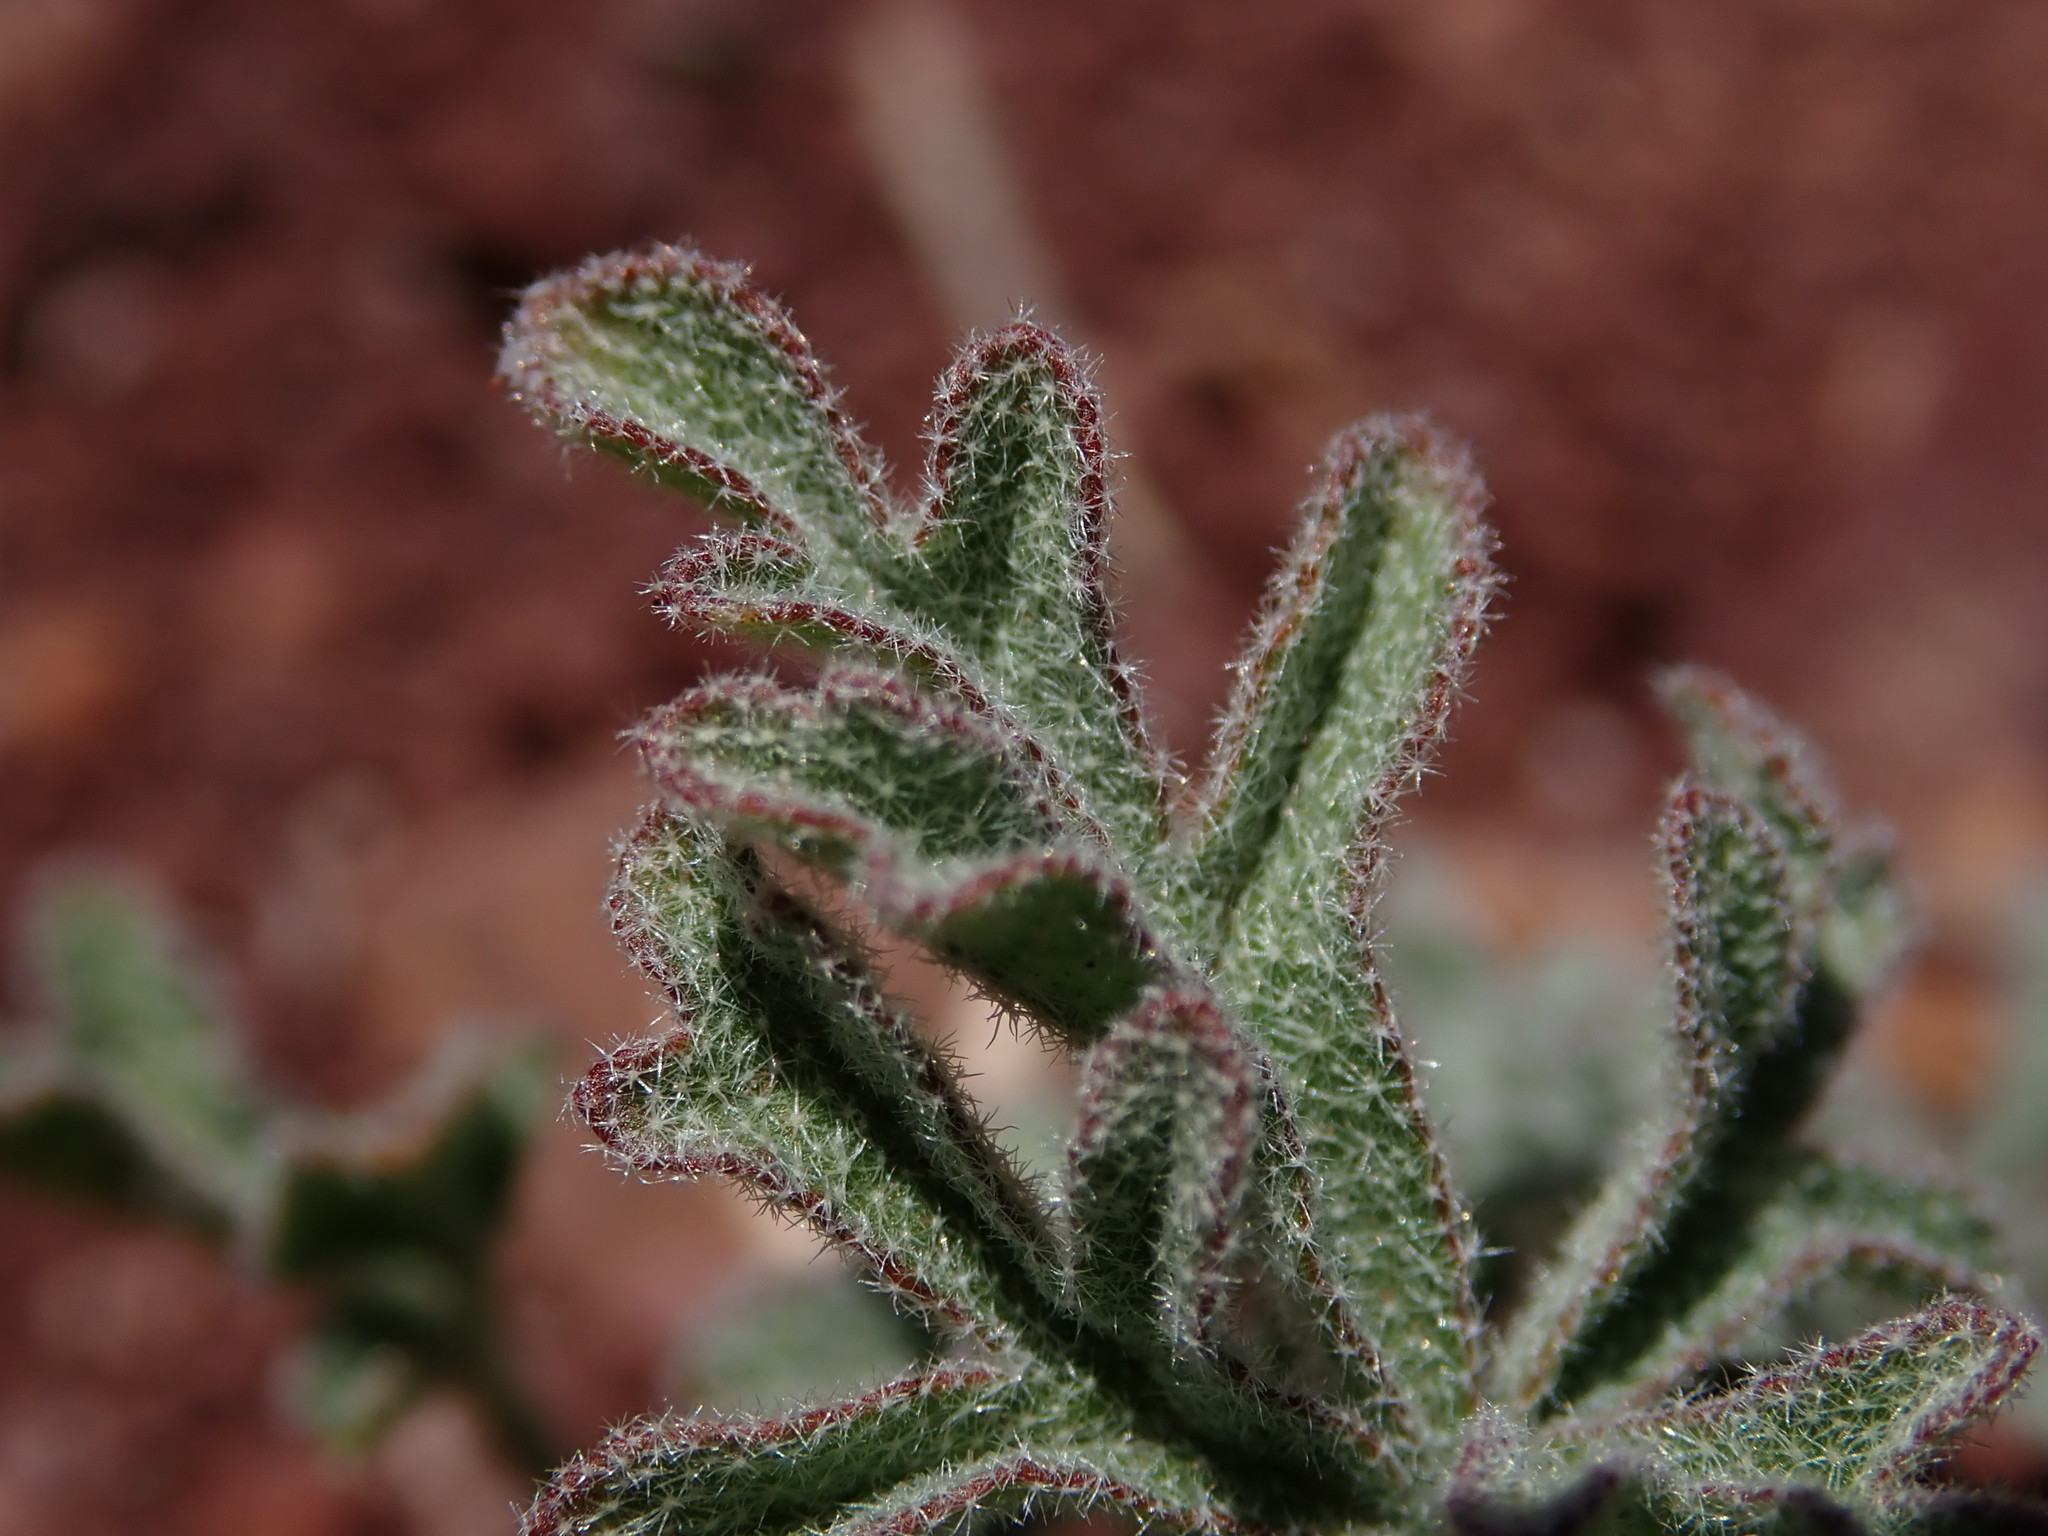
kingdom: Plantae
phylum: Tracheophyta
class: Magnoliopsida
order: Malvales
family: Malvaceae
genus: Sphaeralcea
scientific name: Sphaeralcea rusbyi
